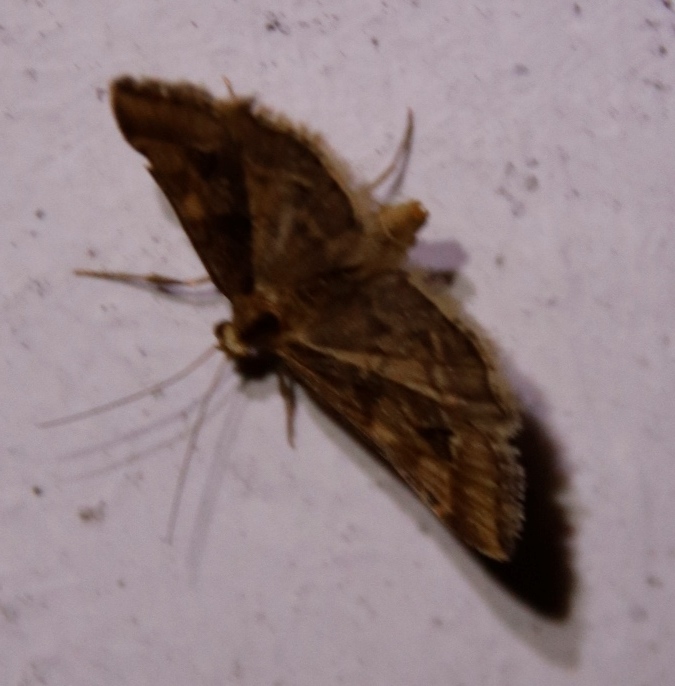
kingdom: Animalia
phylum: Arthropoda
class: Insecta
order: Lepidoptera
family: Crambidae
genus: Diasemia
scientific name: Diasemia disjectalis
